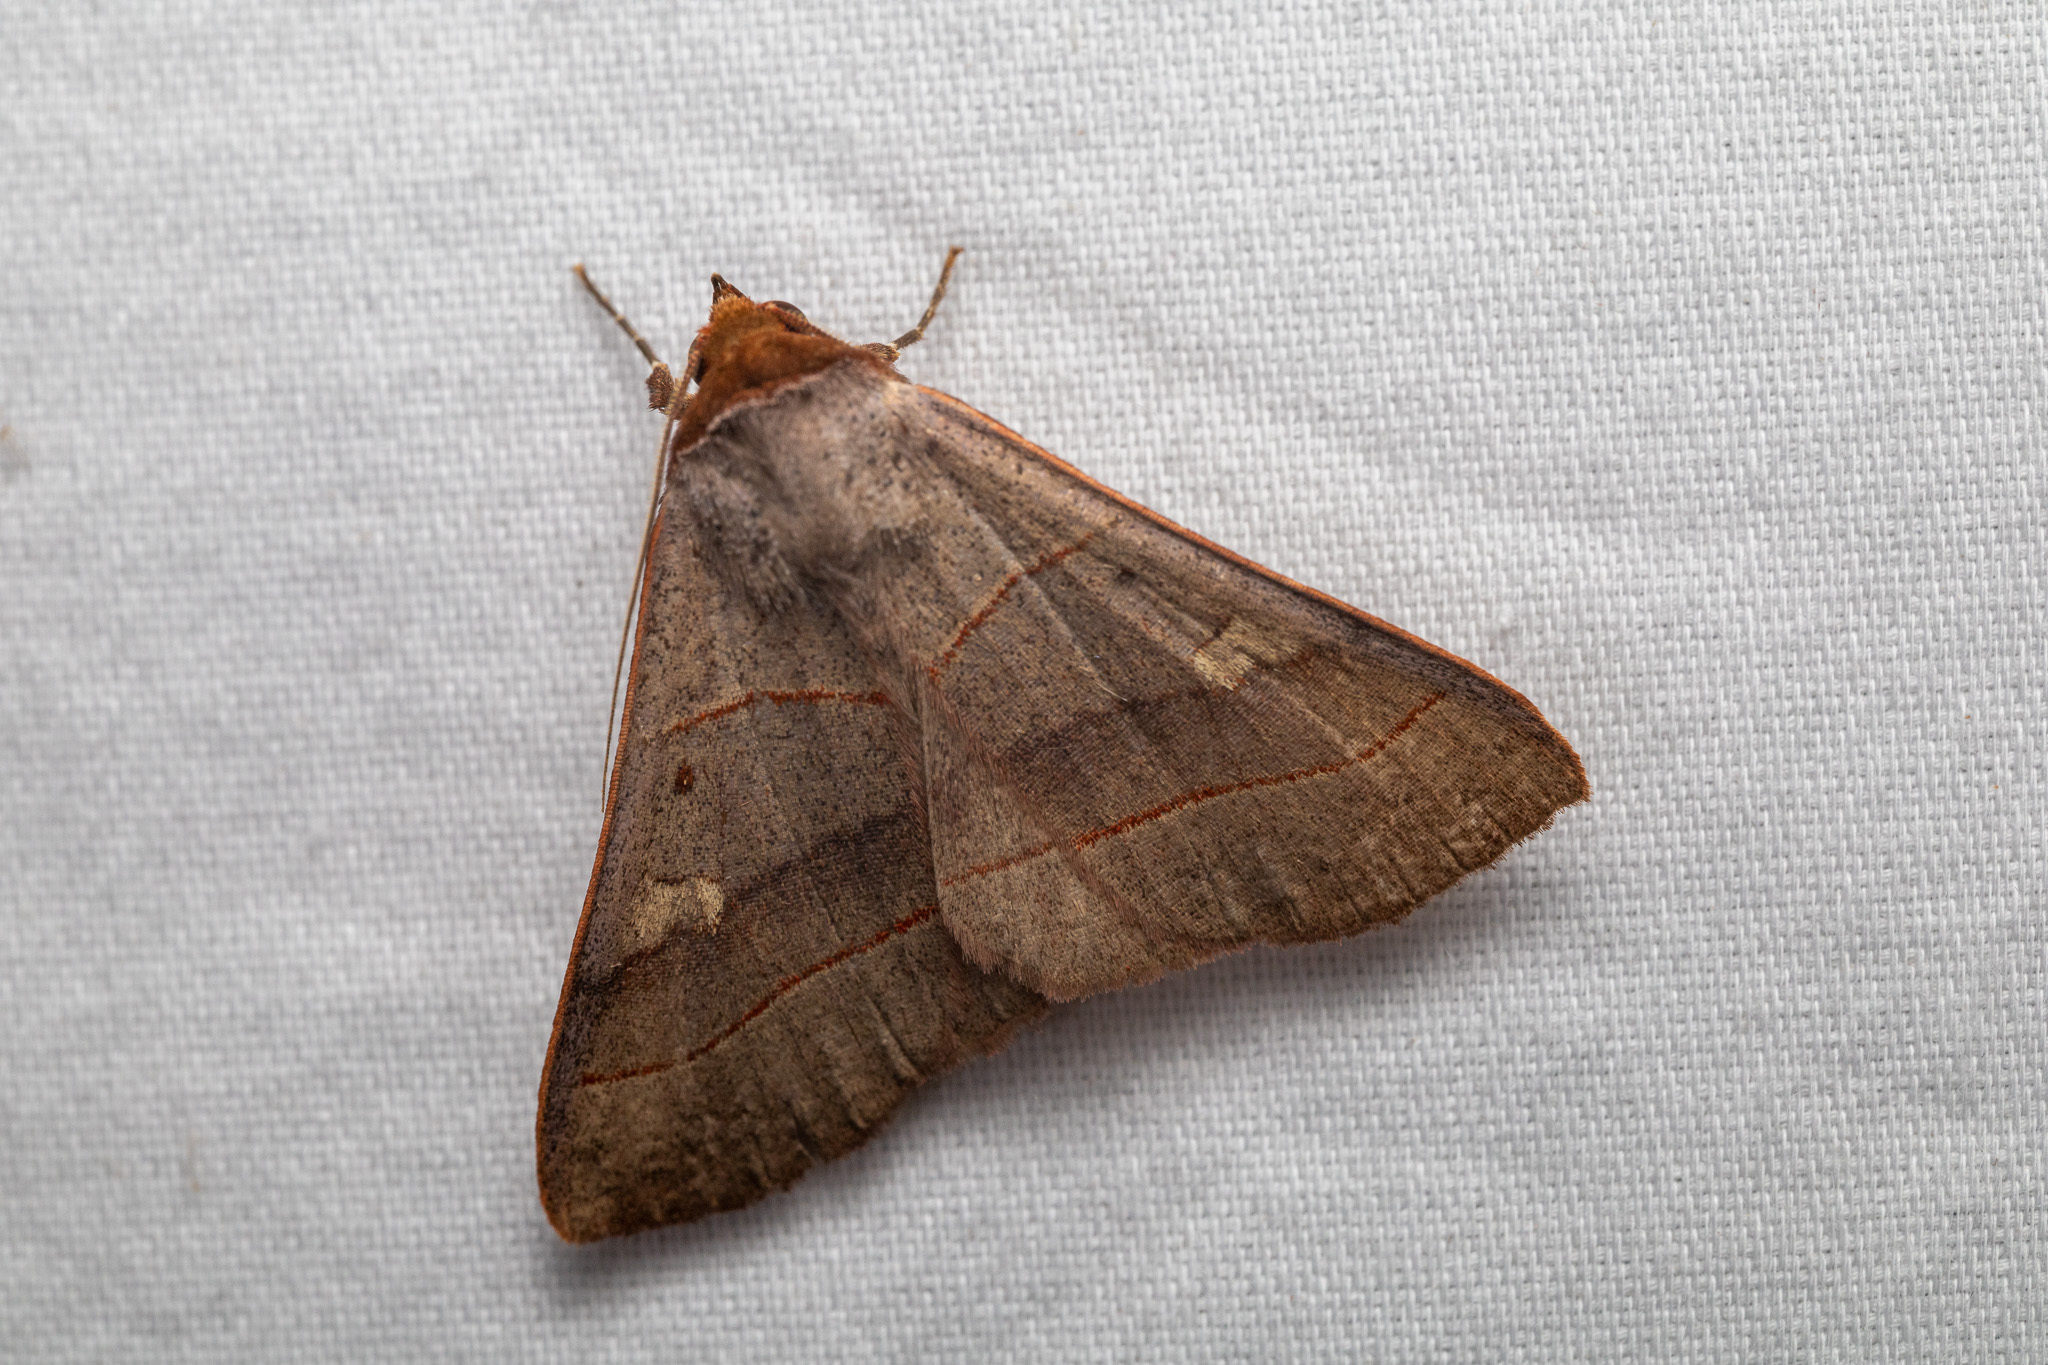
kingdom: Animalia
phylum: Arthropoda
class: Insecta
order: Lepidoptera
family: Erebidae
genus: Panopoda
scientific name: Panopoda rufimargo
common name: Red-lined panopoda moth
